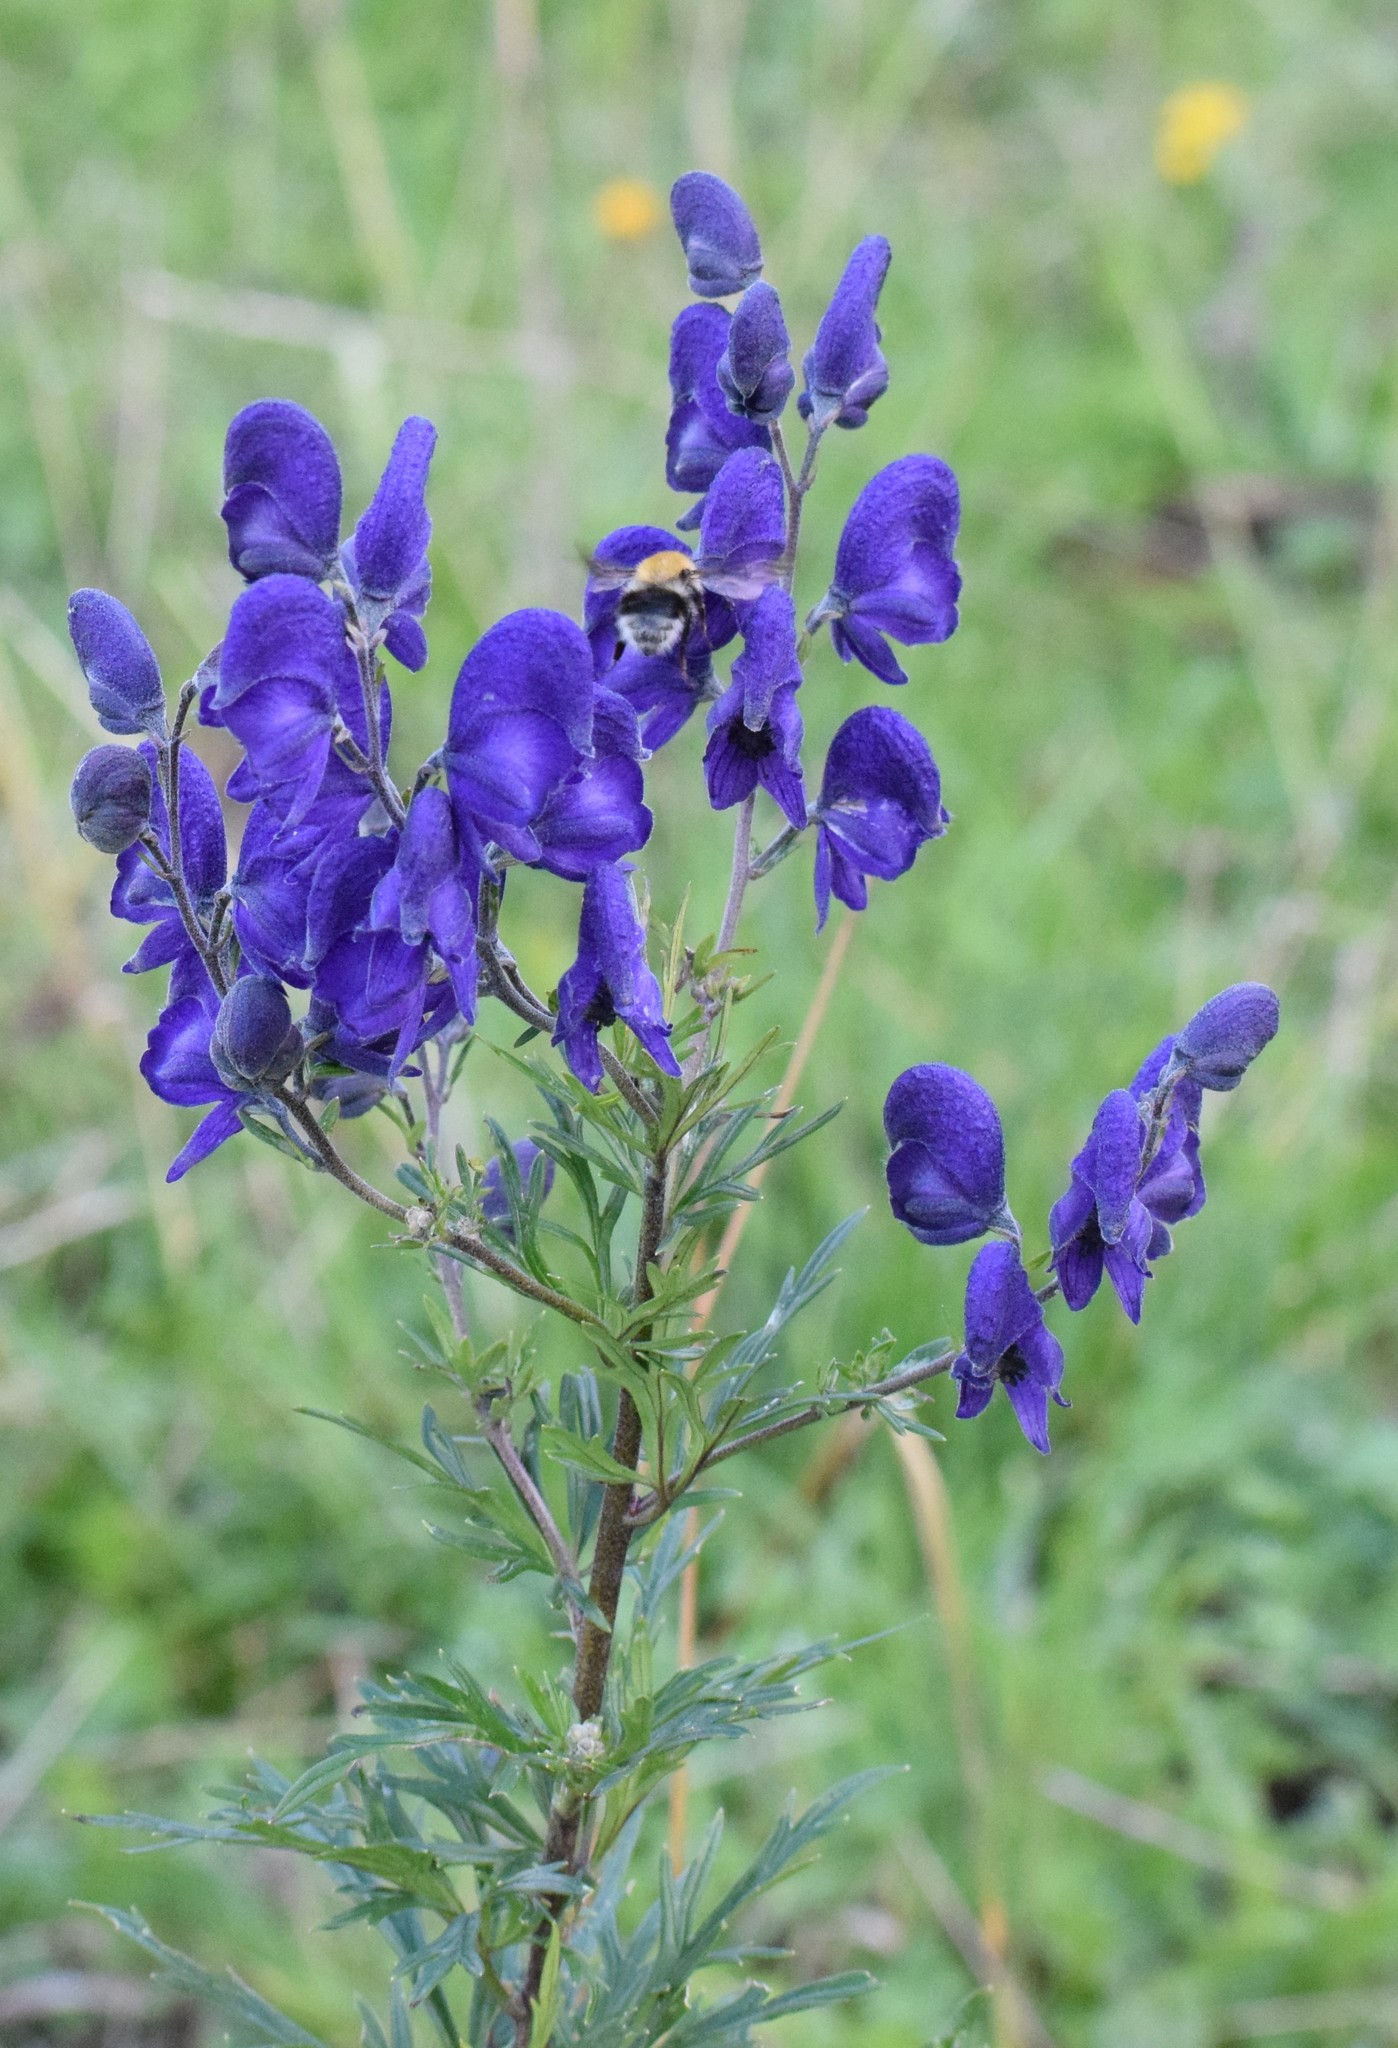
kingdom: Plantae
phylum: Tracheophyta
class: Magnoliopsida
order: Ranunculales
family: Ranunculaceae
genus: Aconitum
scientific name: Aconitum napellus
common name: Garden monkshood
